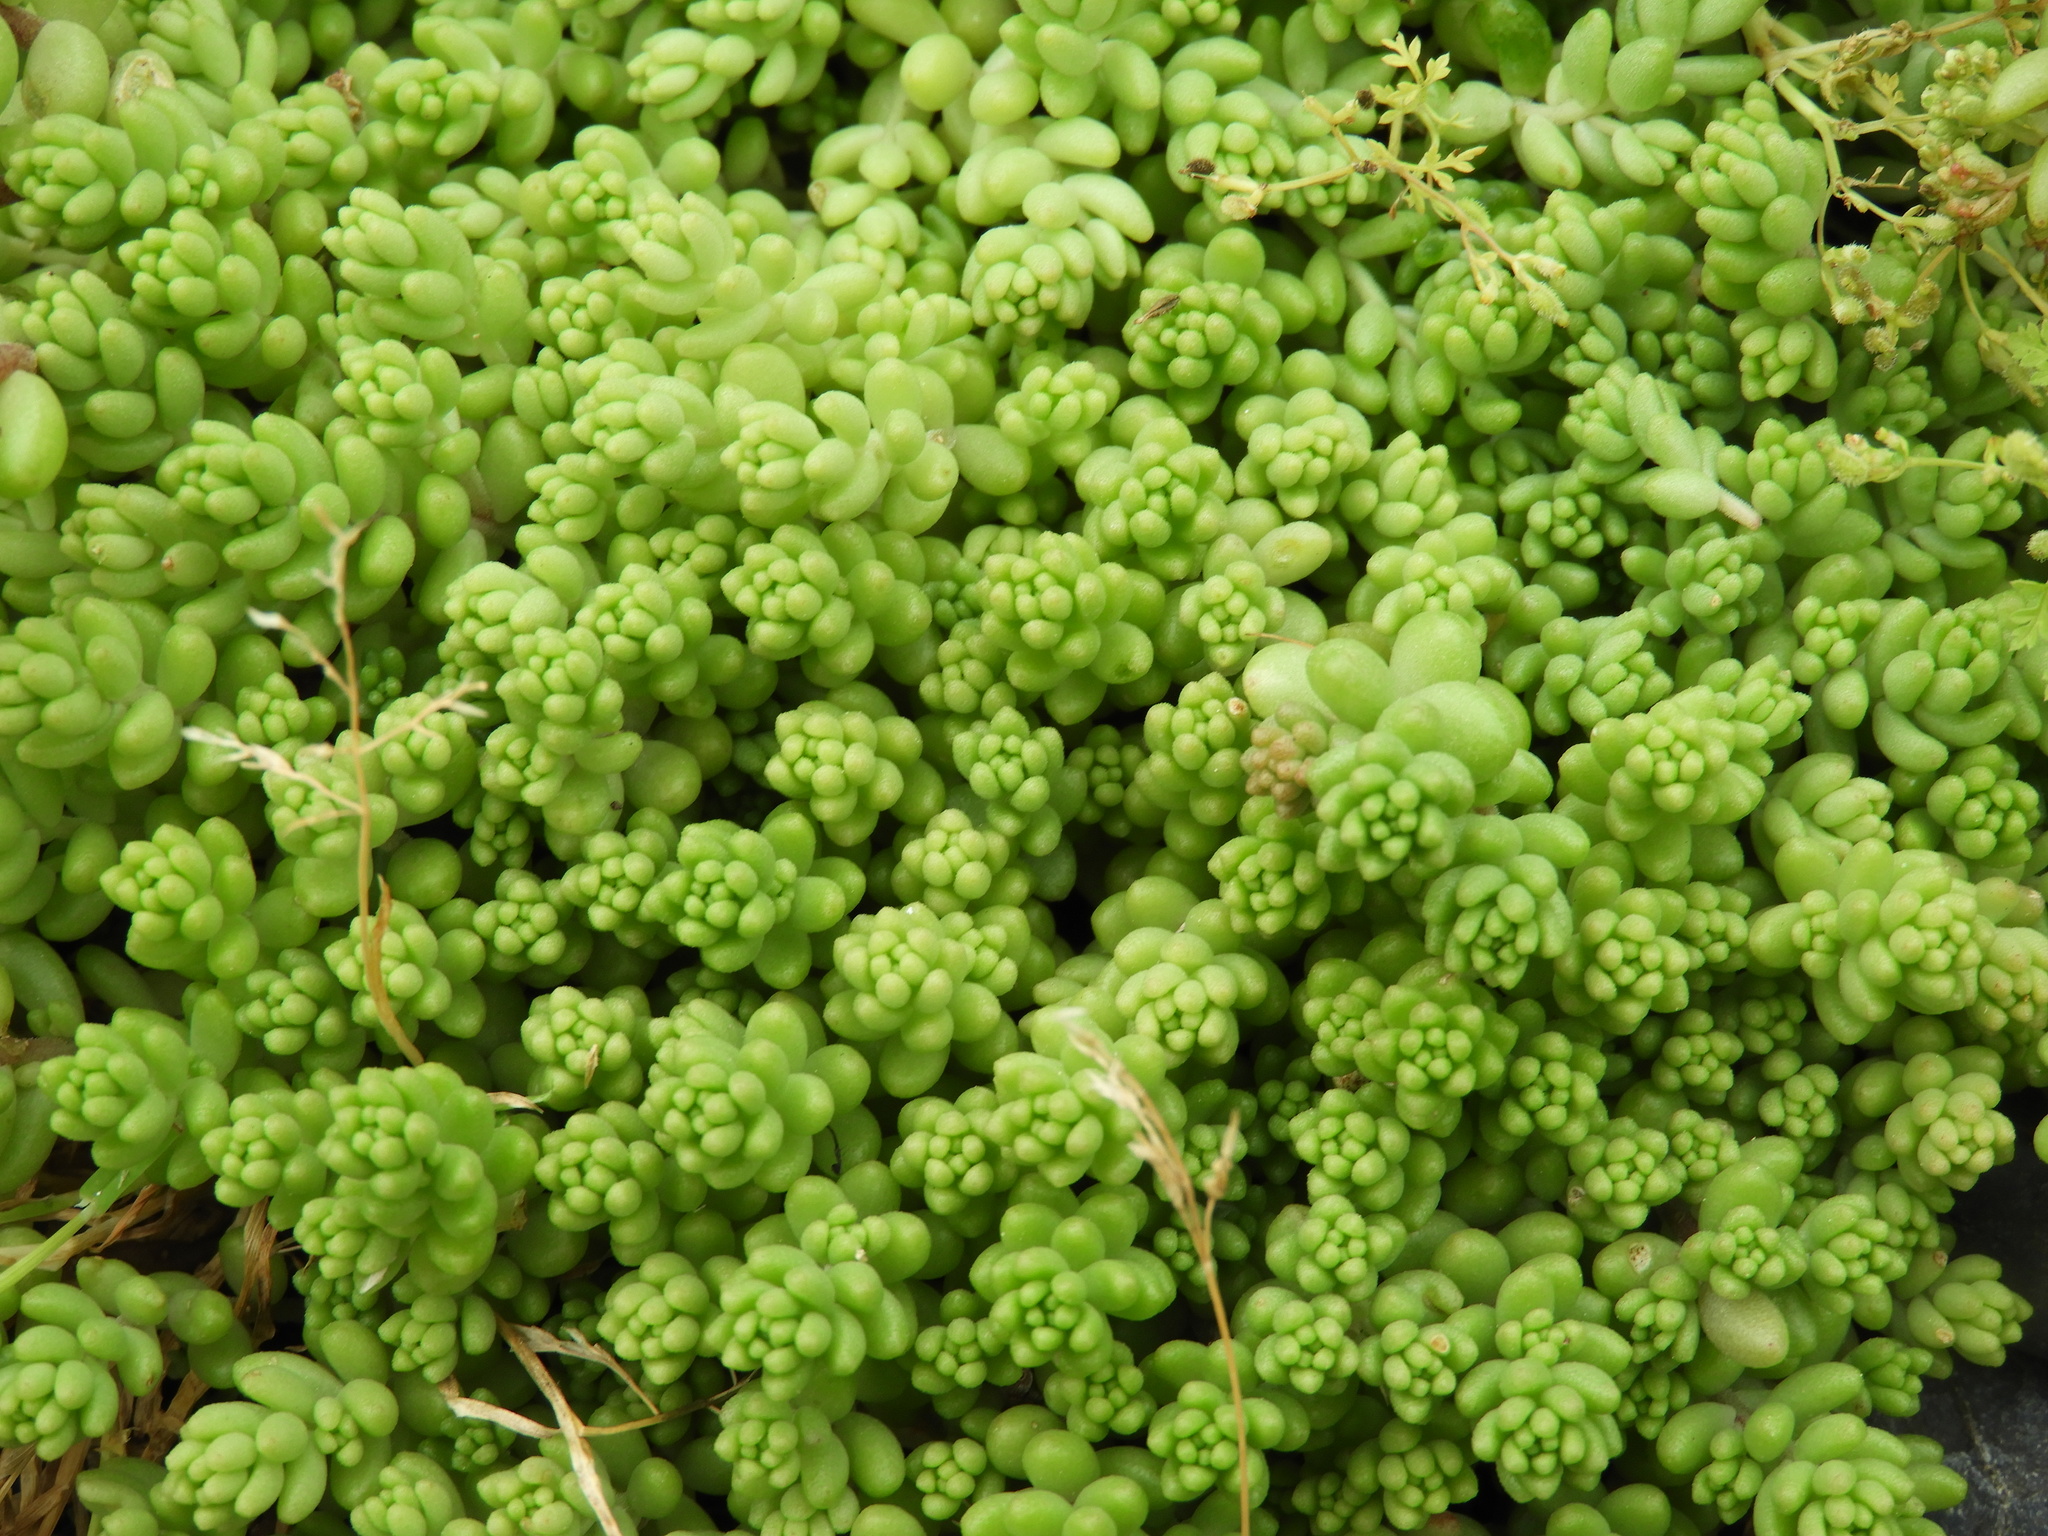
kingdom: Plantae
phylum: Tracheophyta
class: Magnoliopsida
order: Saxifragales
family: Crassulaceae
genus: Sedum
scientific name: Sedum album
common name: White stonecrop
